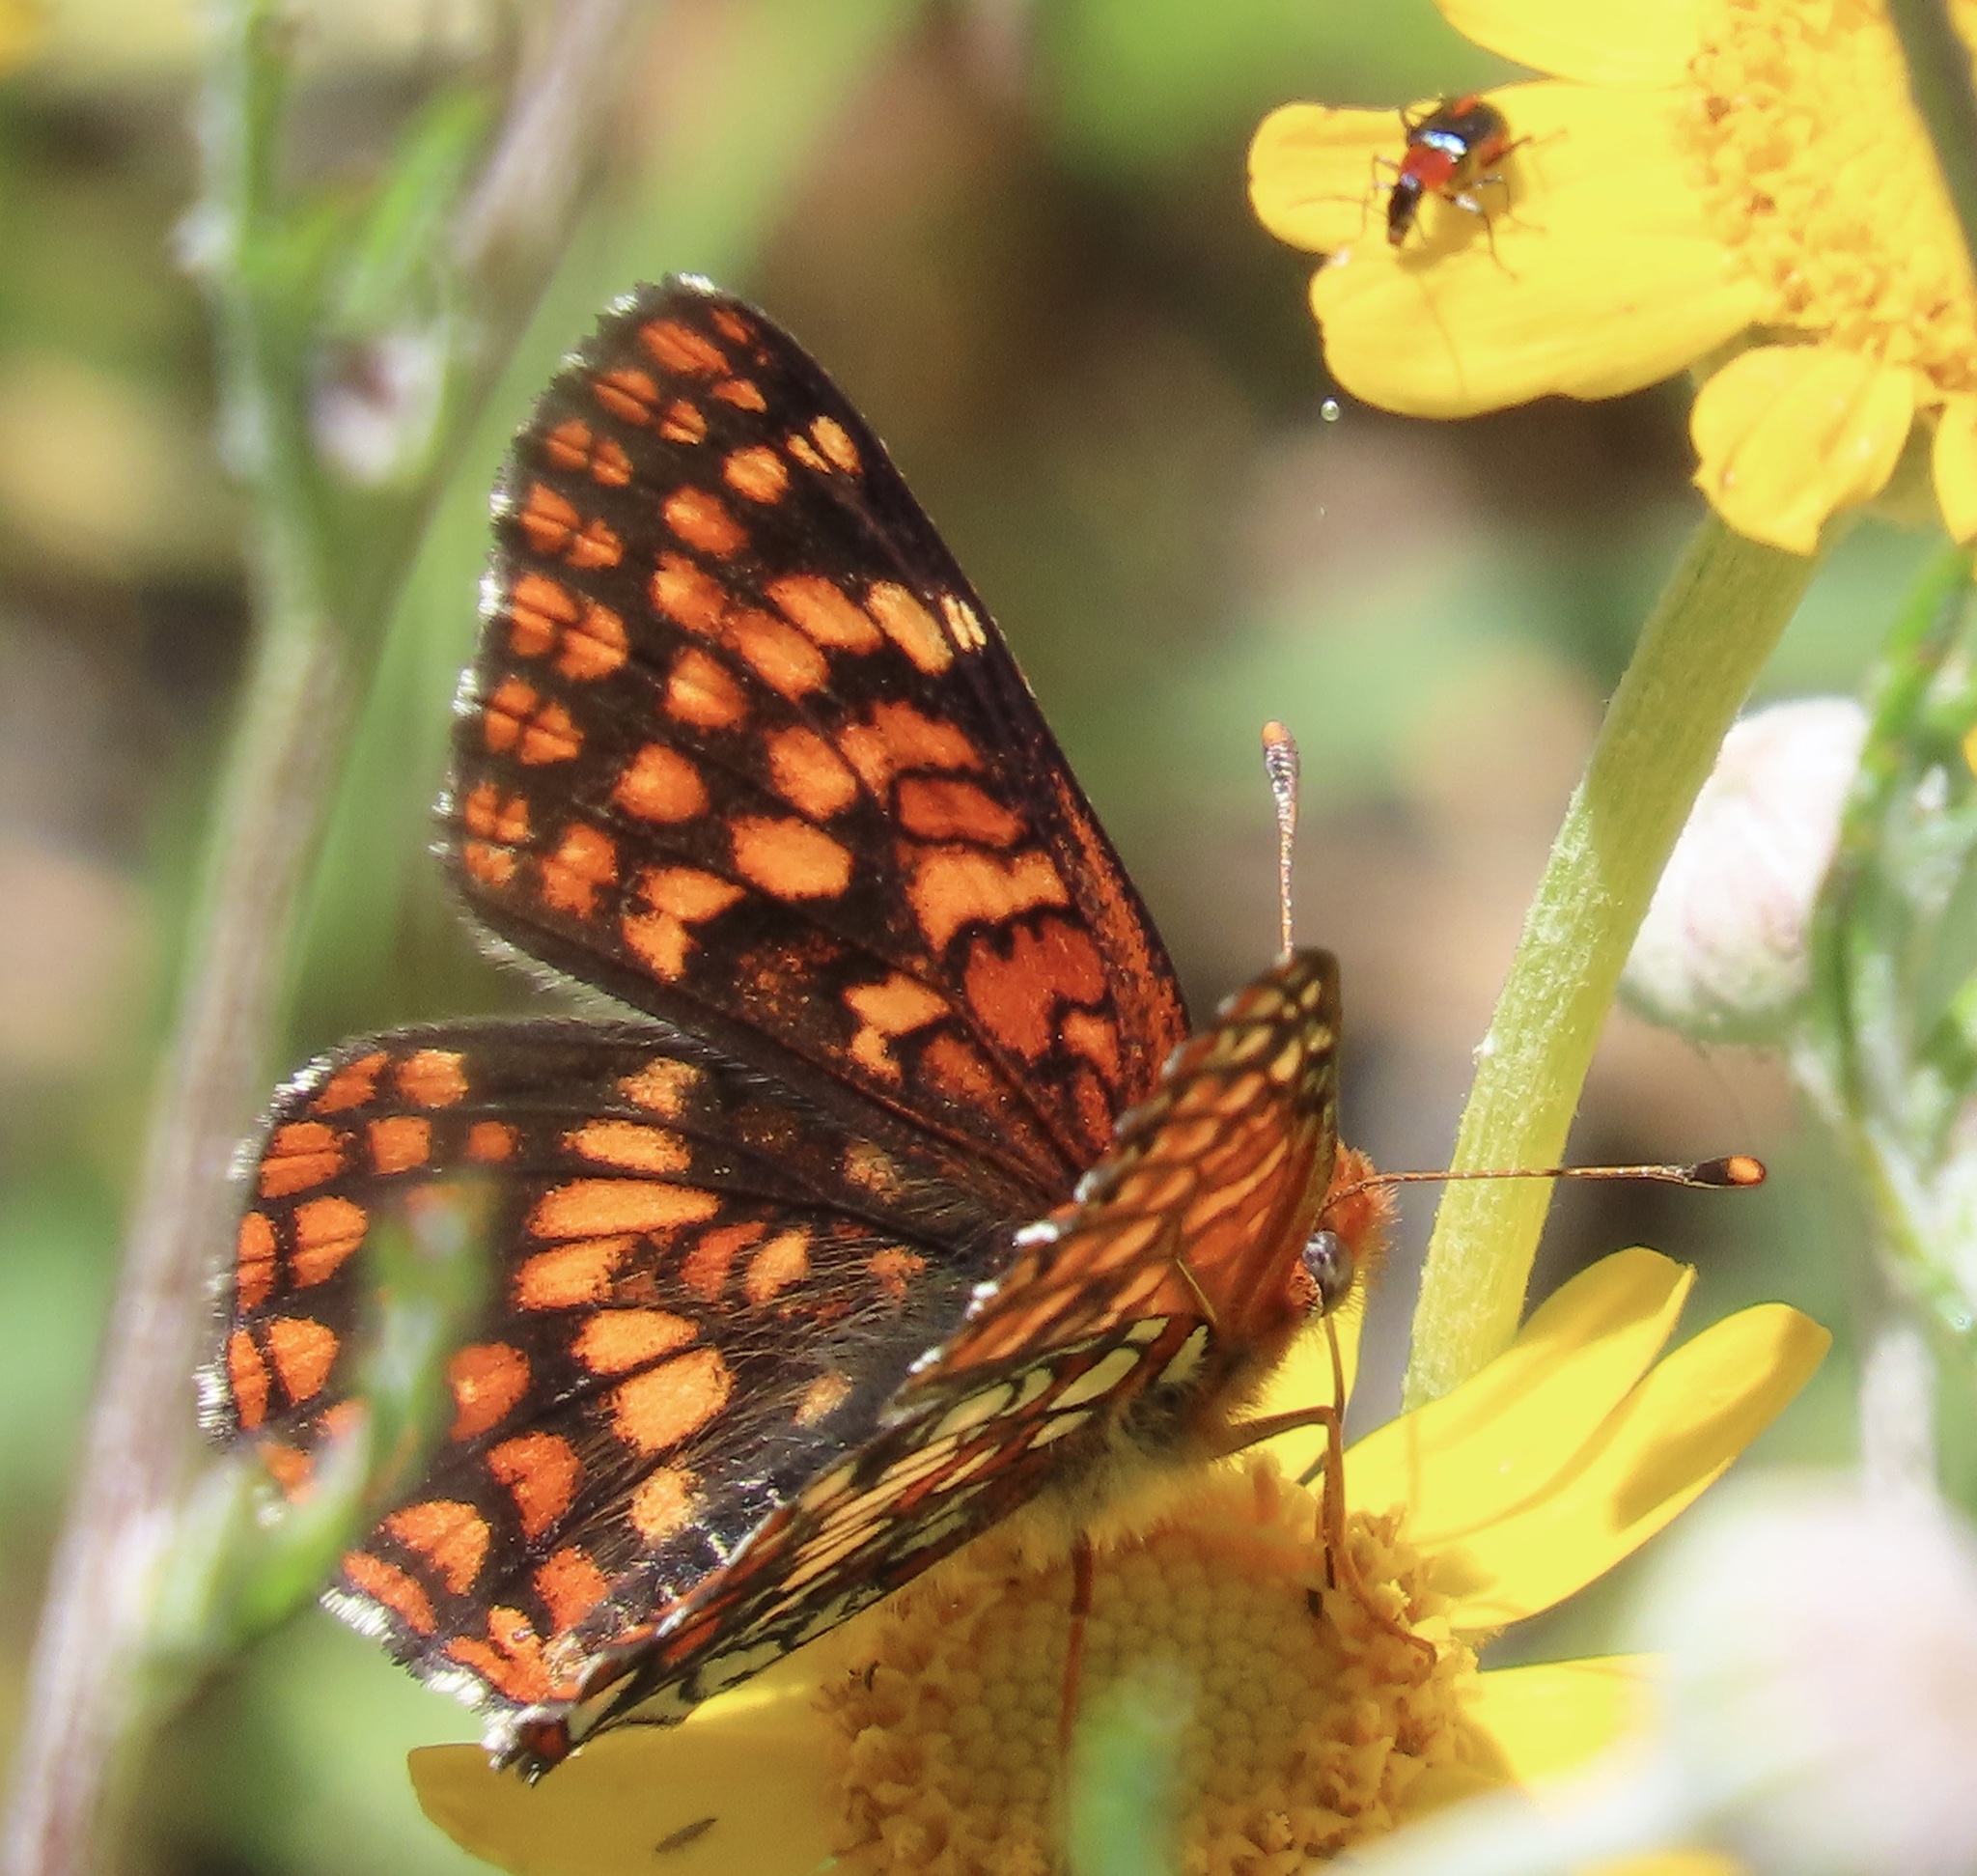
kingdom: Animalia
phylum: Arthropoda
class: Insecta
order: Lepidoptera
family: Nymphalidae
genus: Chlosyne
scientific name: Chlosyne palla
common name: Northern checkerspot
